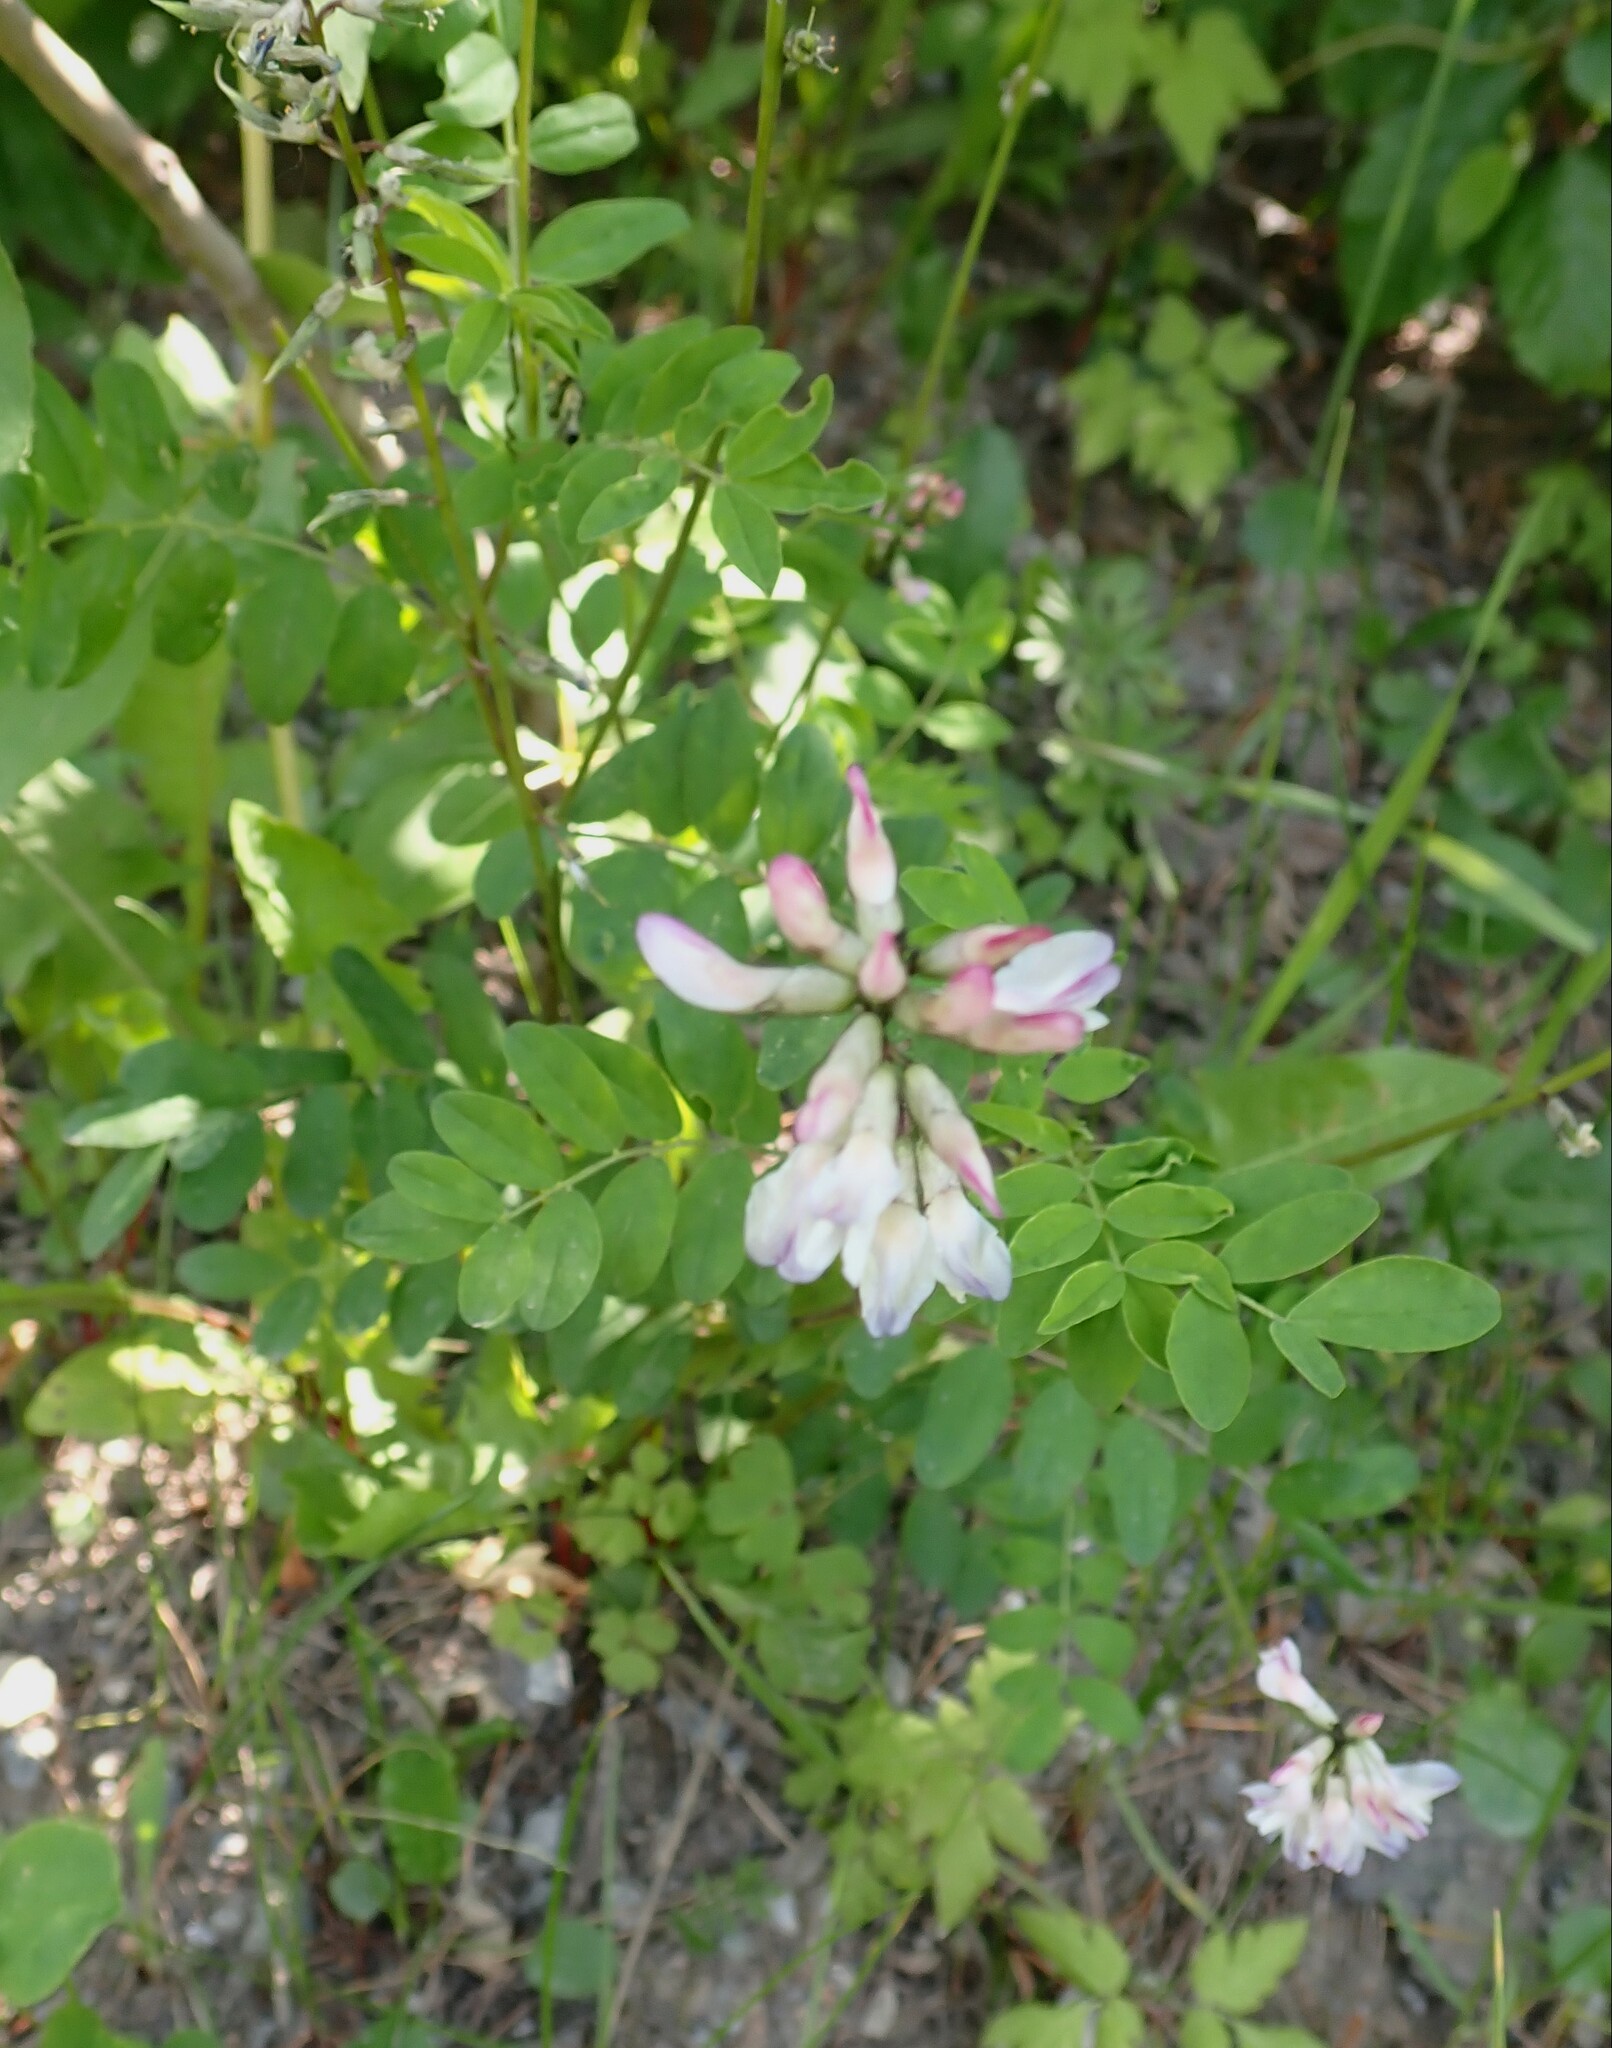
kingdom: Plantae
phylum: Tracheophyta
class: Magnoliopsida
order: Fabales
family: Fabaceae
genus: Astragalus
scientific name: Astragalus robbinsii
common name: Robbins' milk-vetch
